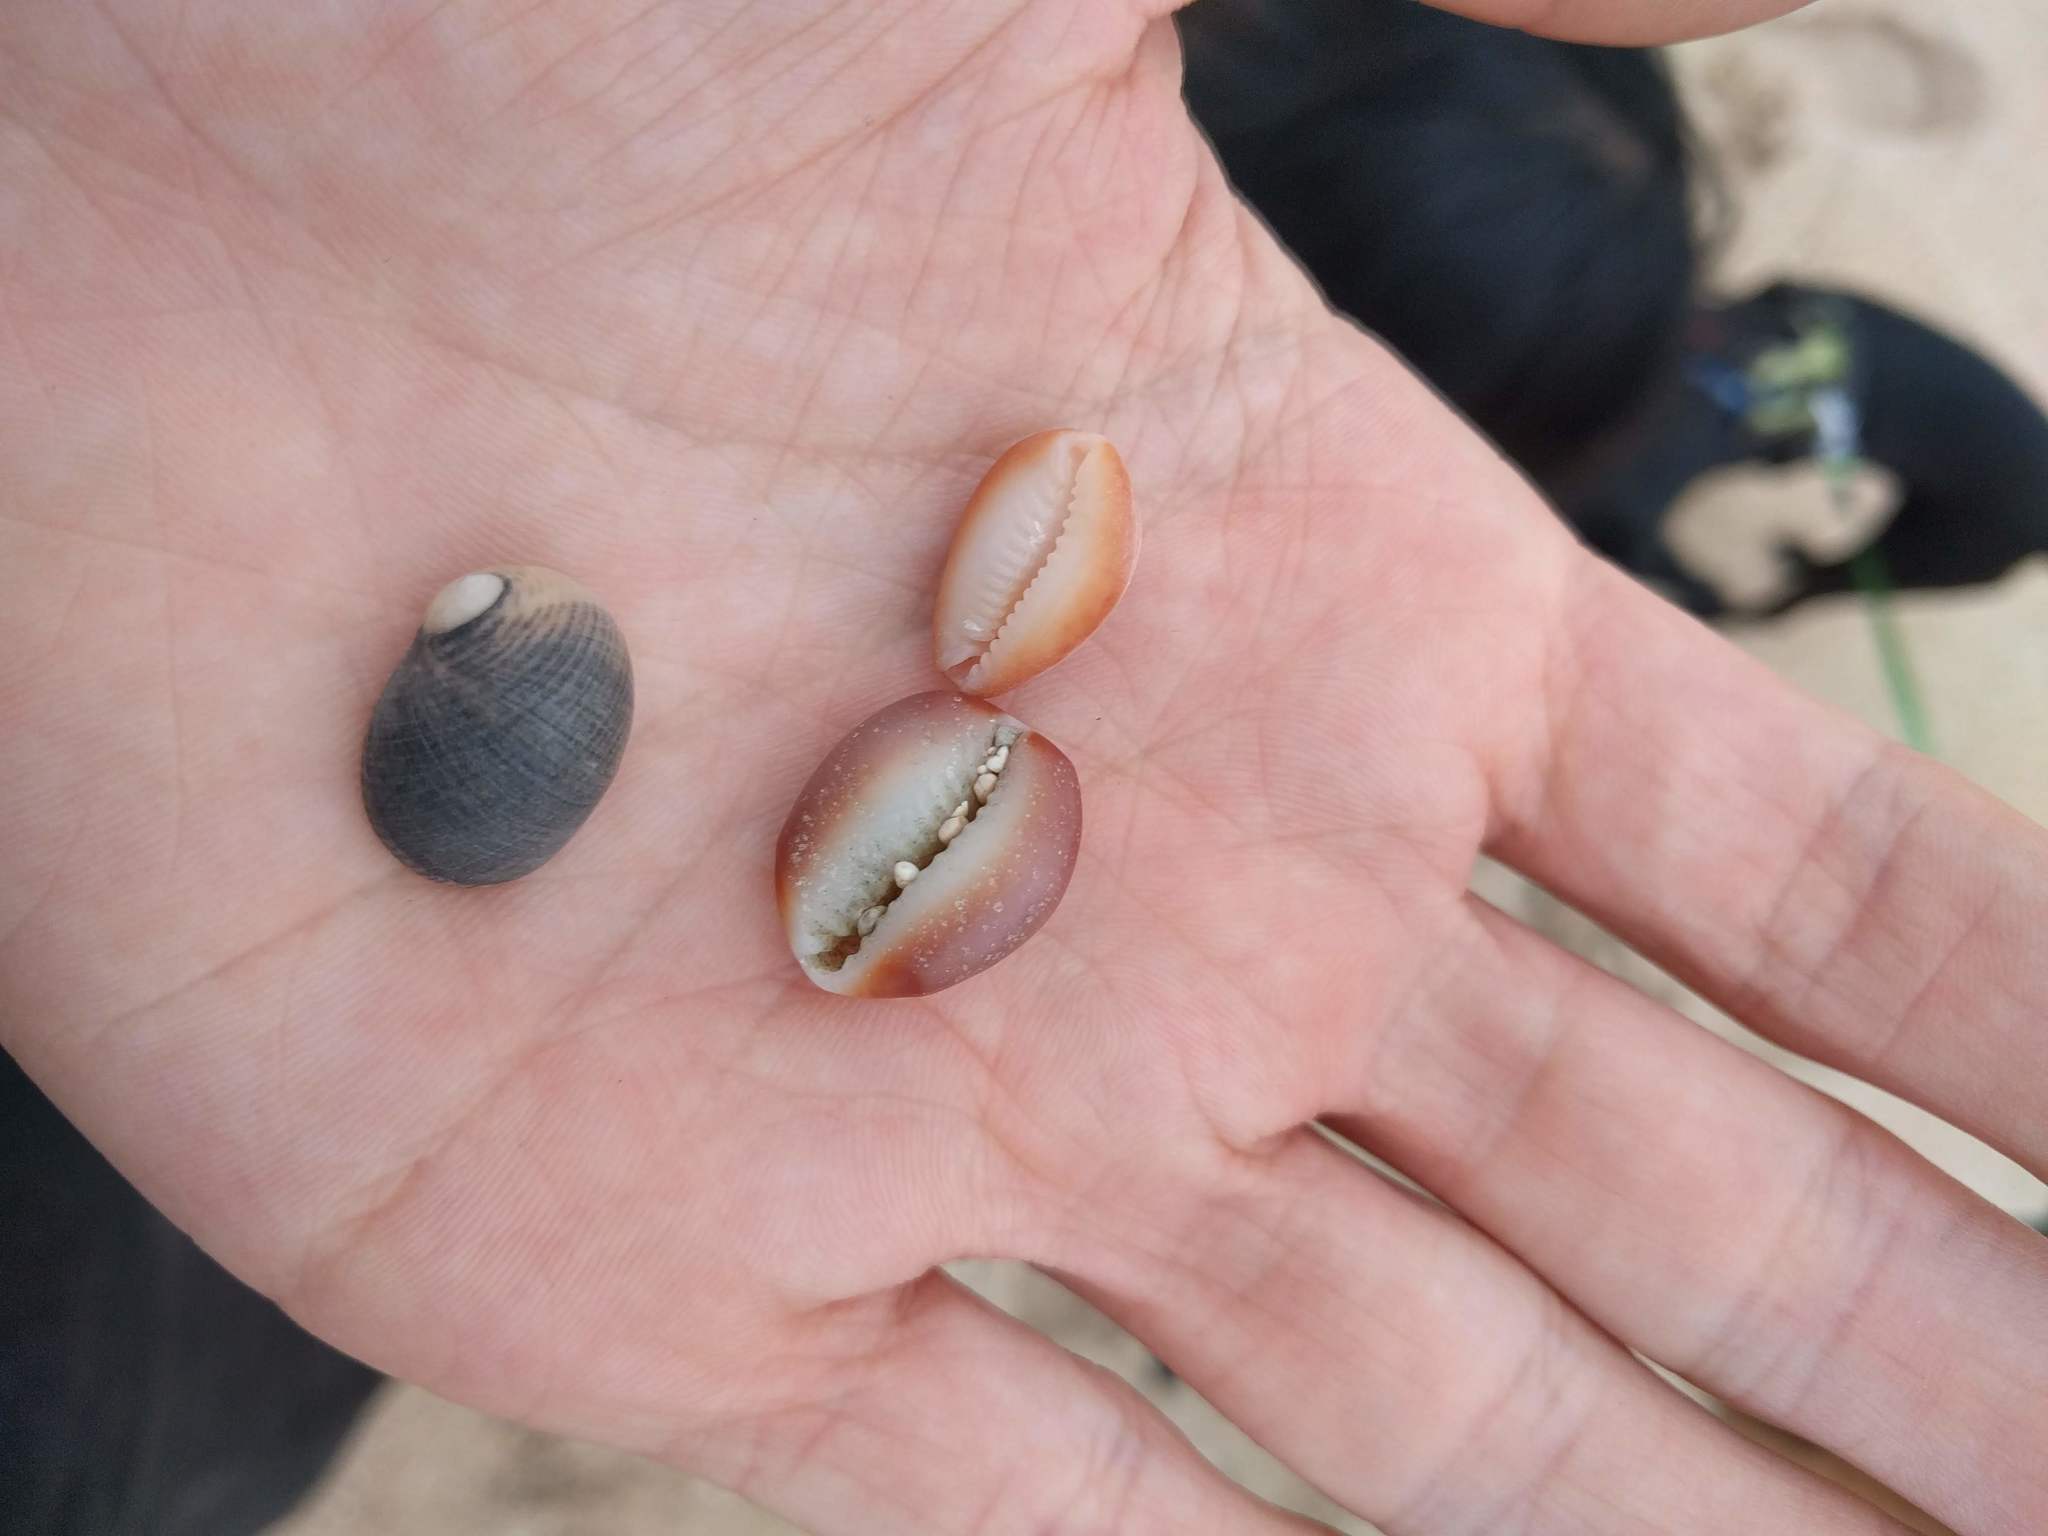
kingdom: Animalia
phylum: Mollusca
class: Gastropoda
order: Littorinimorpha
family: Cypraeidae
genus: Monetaria
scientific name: Monetaria caputophidii
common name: Snake's head cowry
